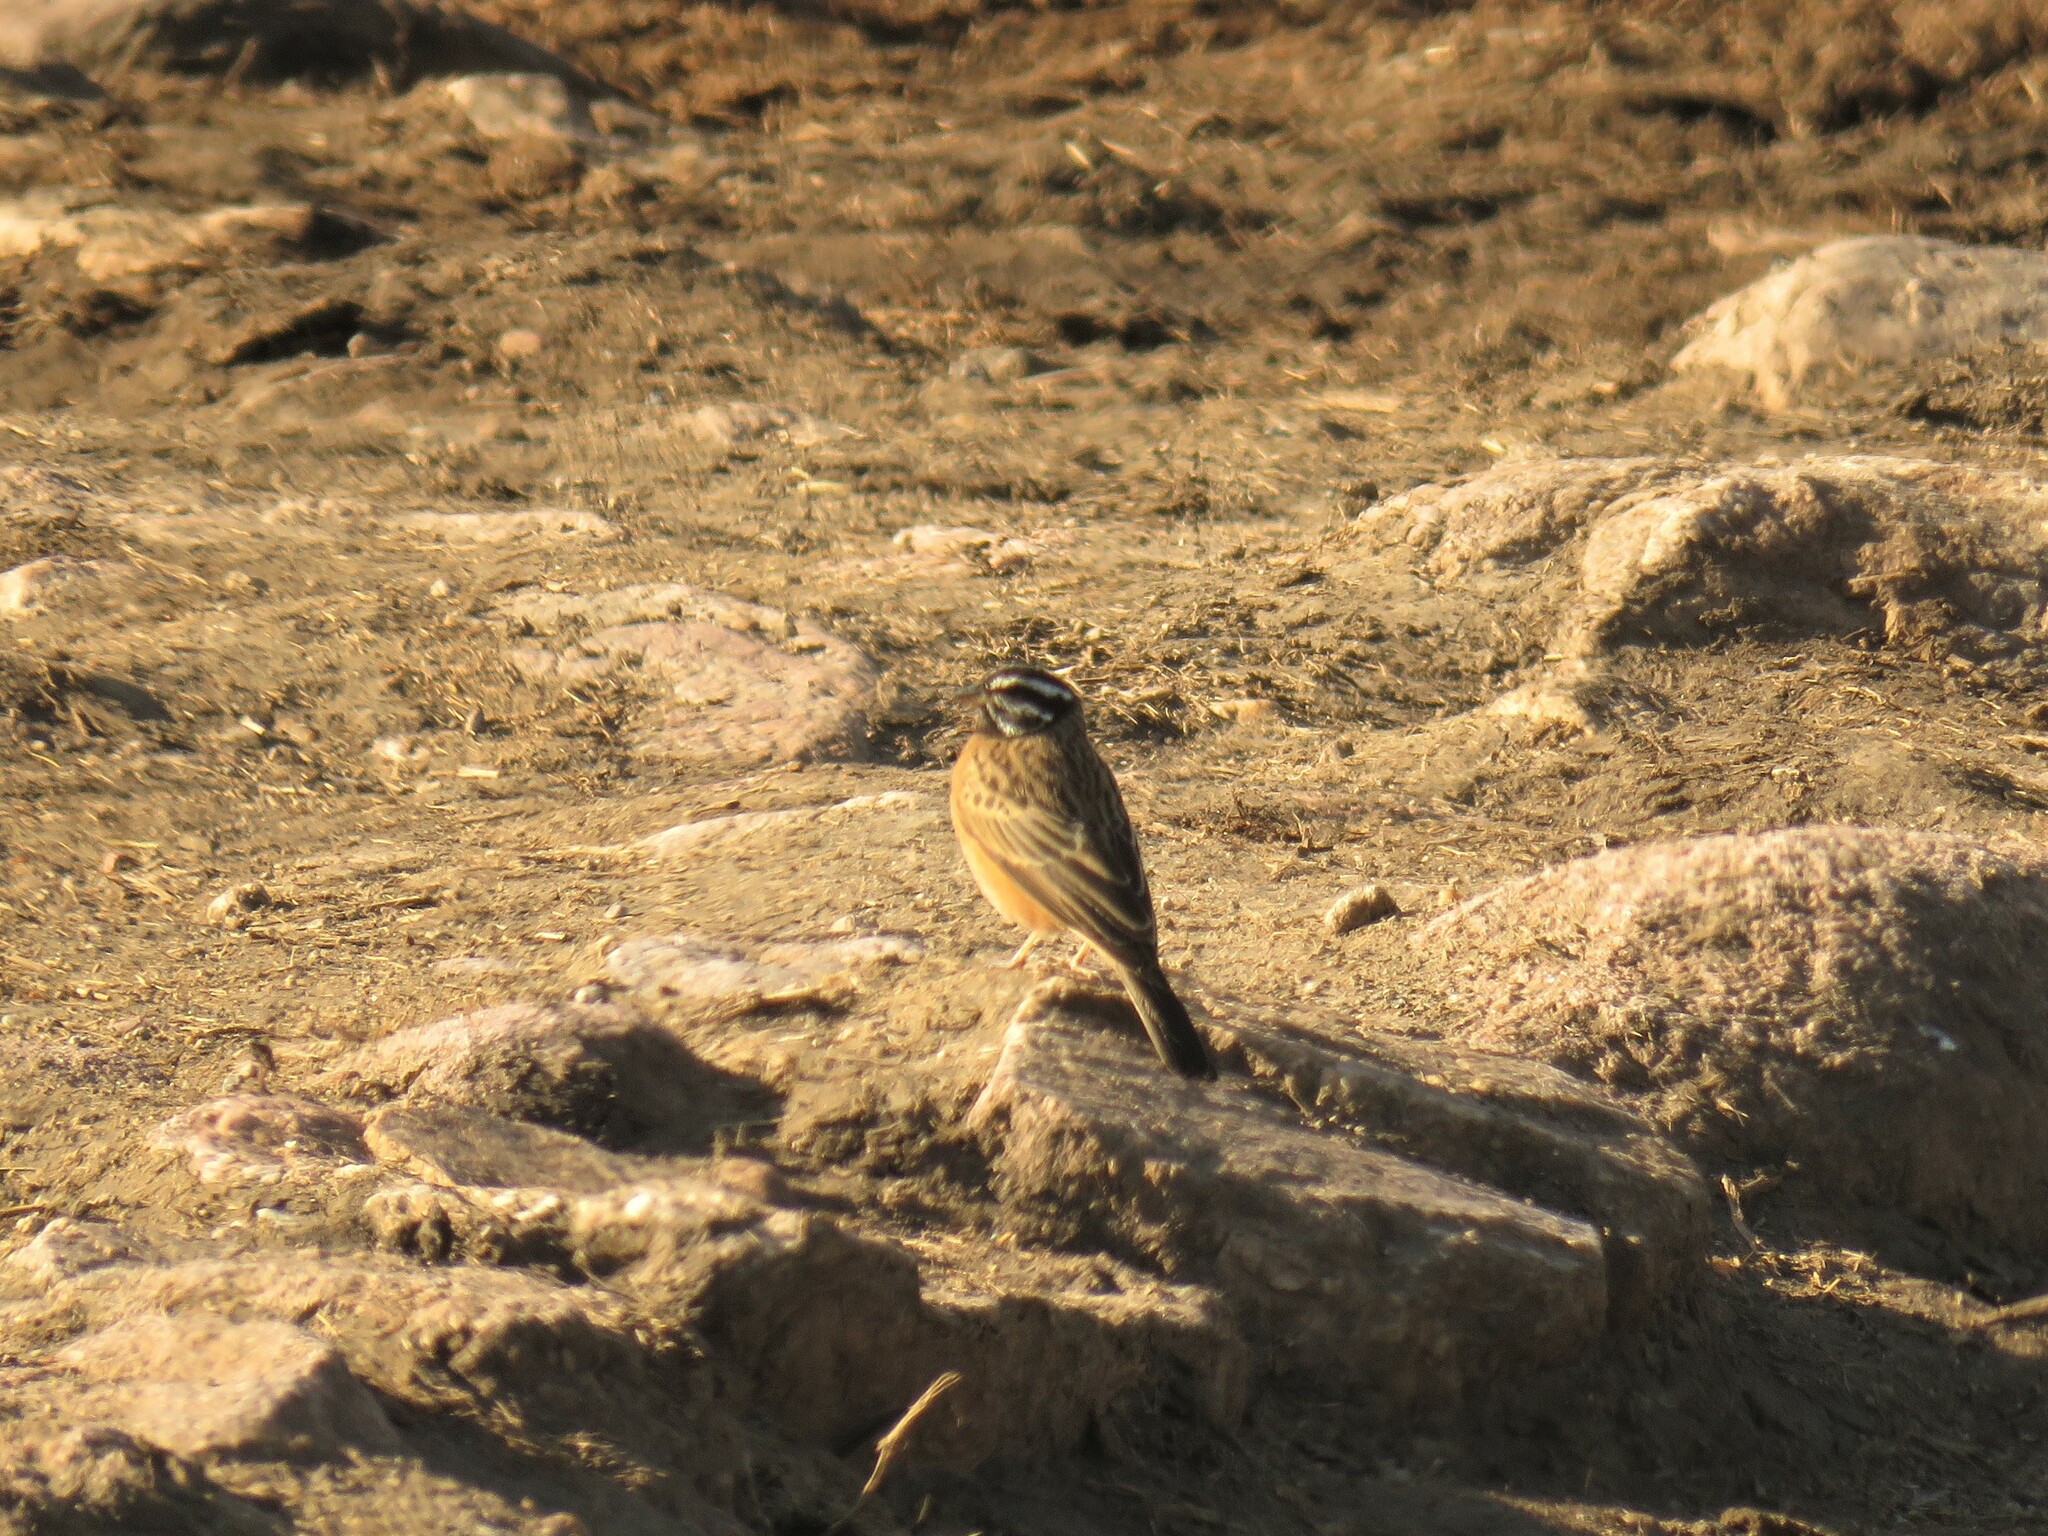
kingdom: Animalia
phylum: Chordata
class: Aves
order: Passeriformes
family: Emberizidae
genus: Emberiza
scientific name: Emberiza tahapisi
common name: Cinnamon-breasted bunting
